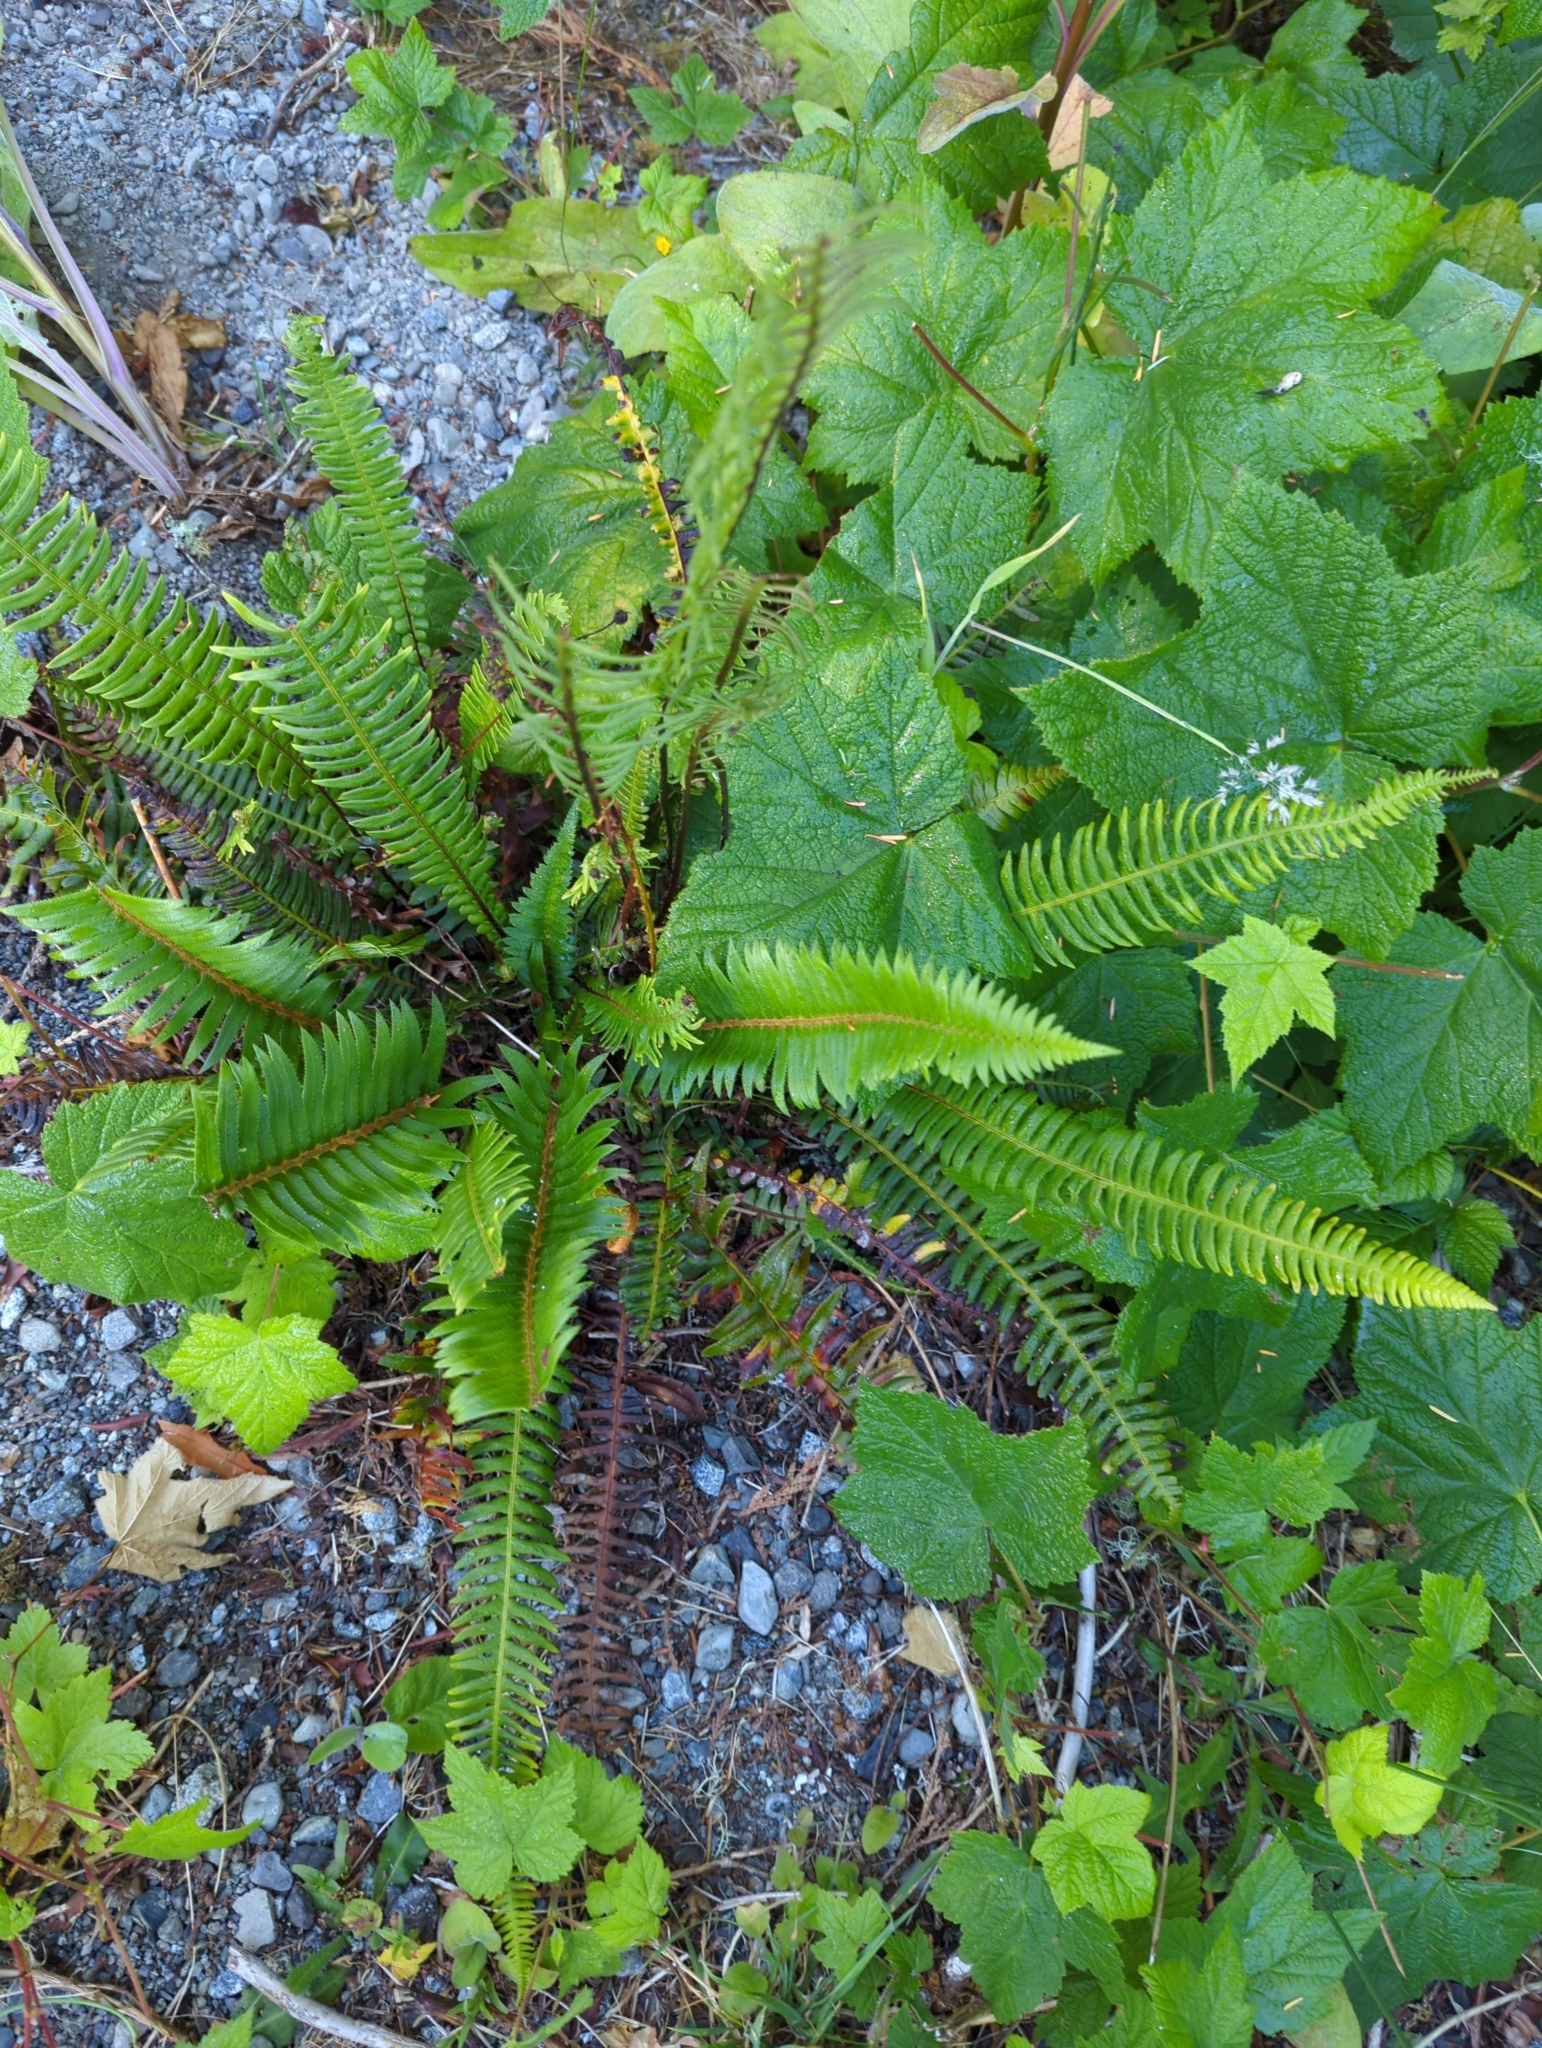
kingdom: Plantae
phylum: Tracheophyta
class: Polypodiopsida
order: Polypodiales
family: Blechnaceae
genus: Struthiopteris
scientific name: Struthiopteris spicant
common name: Deer fern
